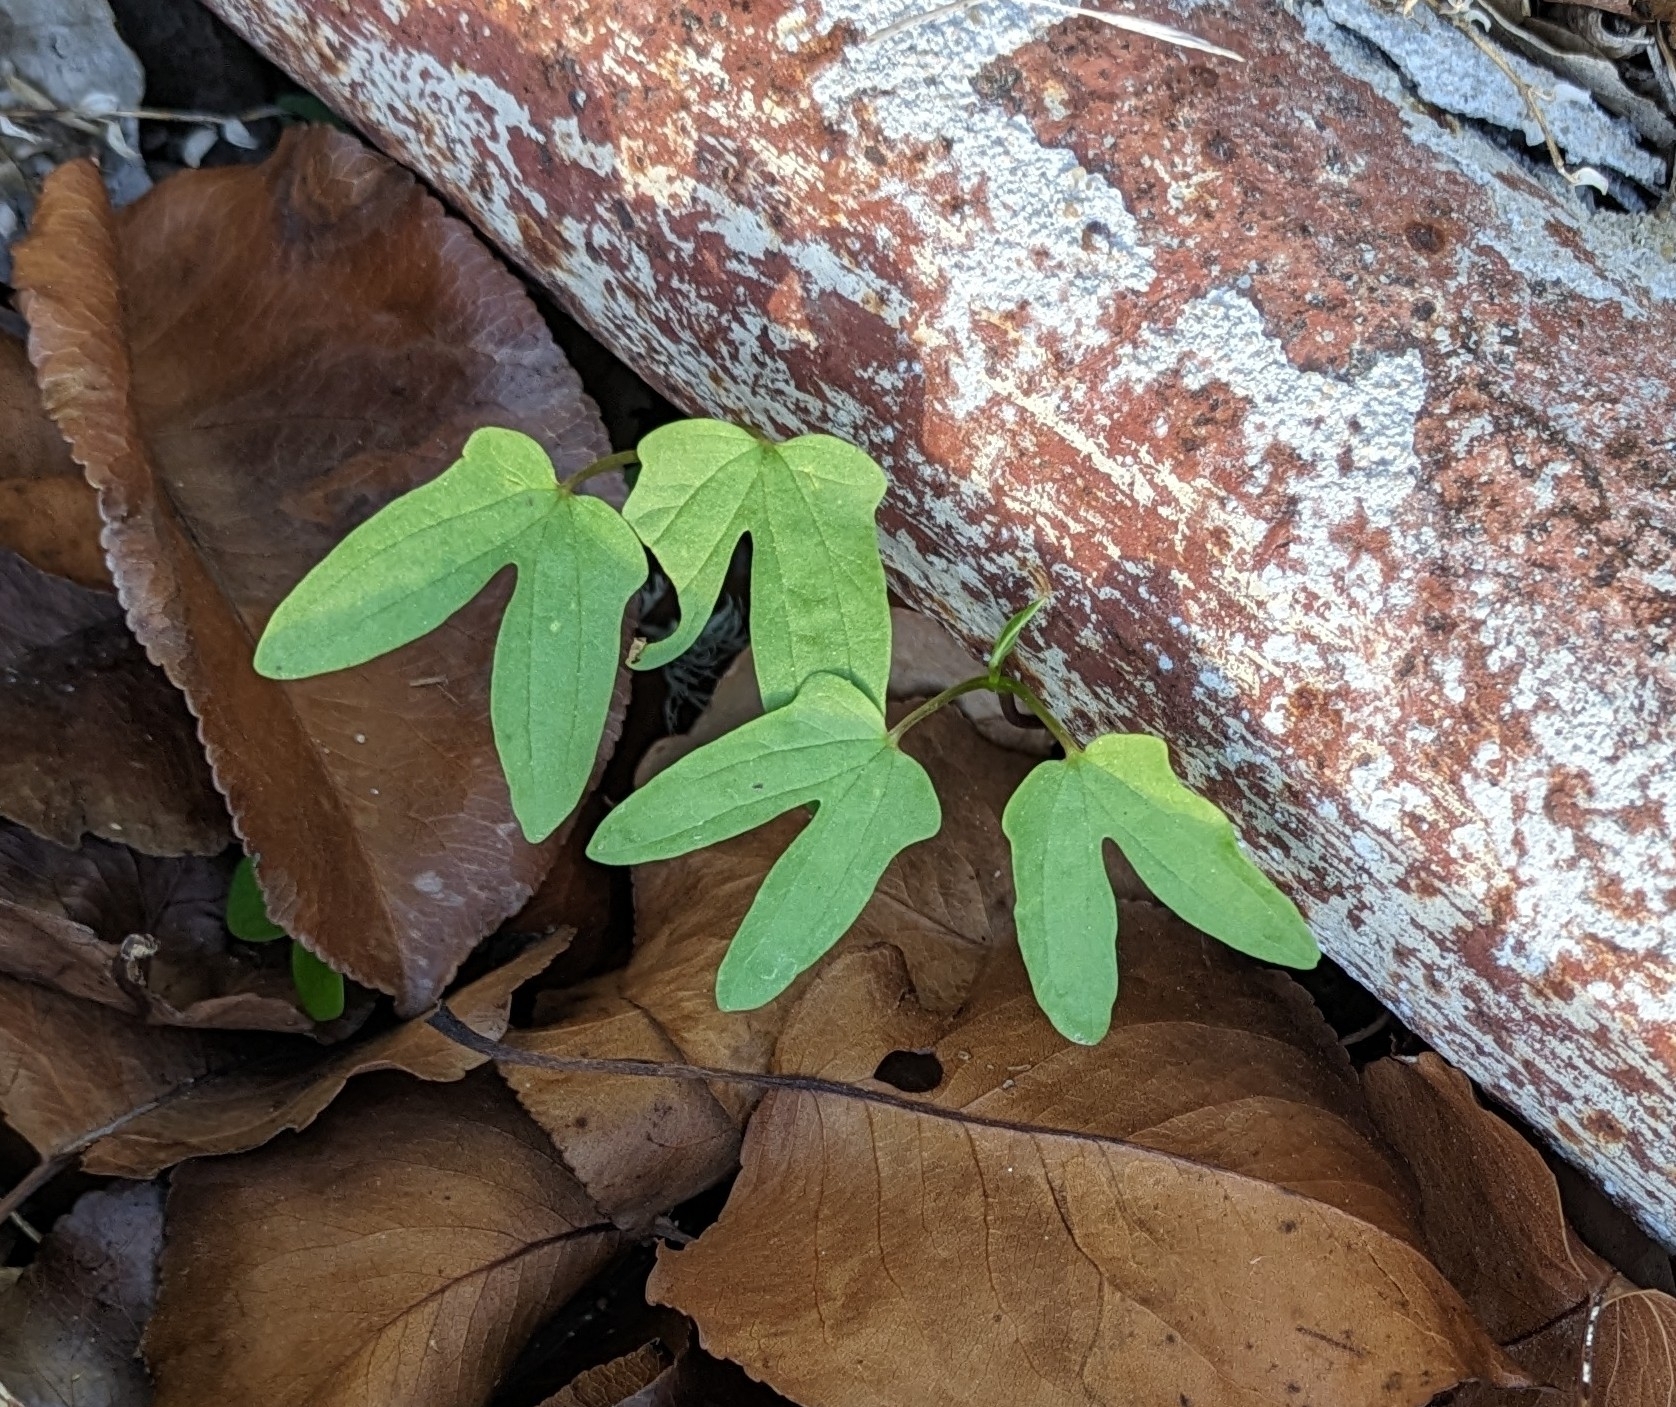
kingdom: Plantae
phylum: Tracheophyta
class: Magnoliopsida
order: Solanales
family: Convolvulaceae
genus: Ipomoea
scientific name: Ipomoea cordatotriloba
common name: Cotton morning glory
